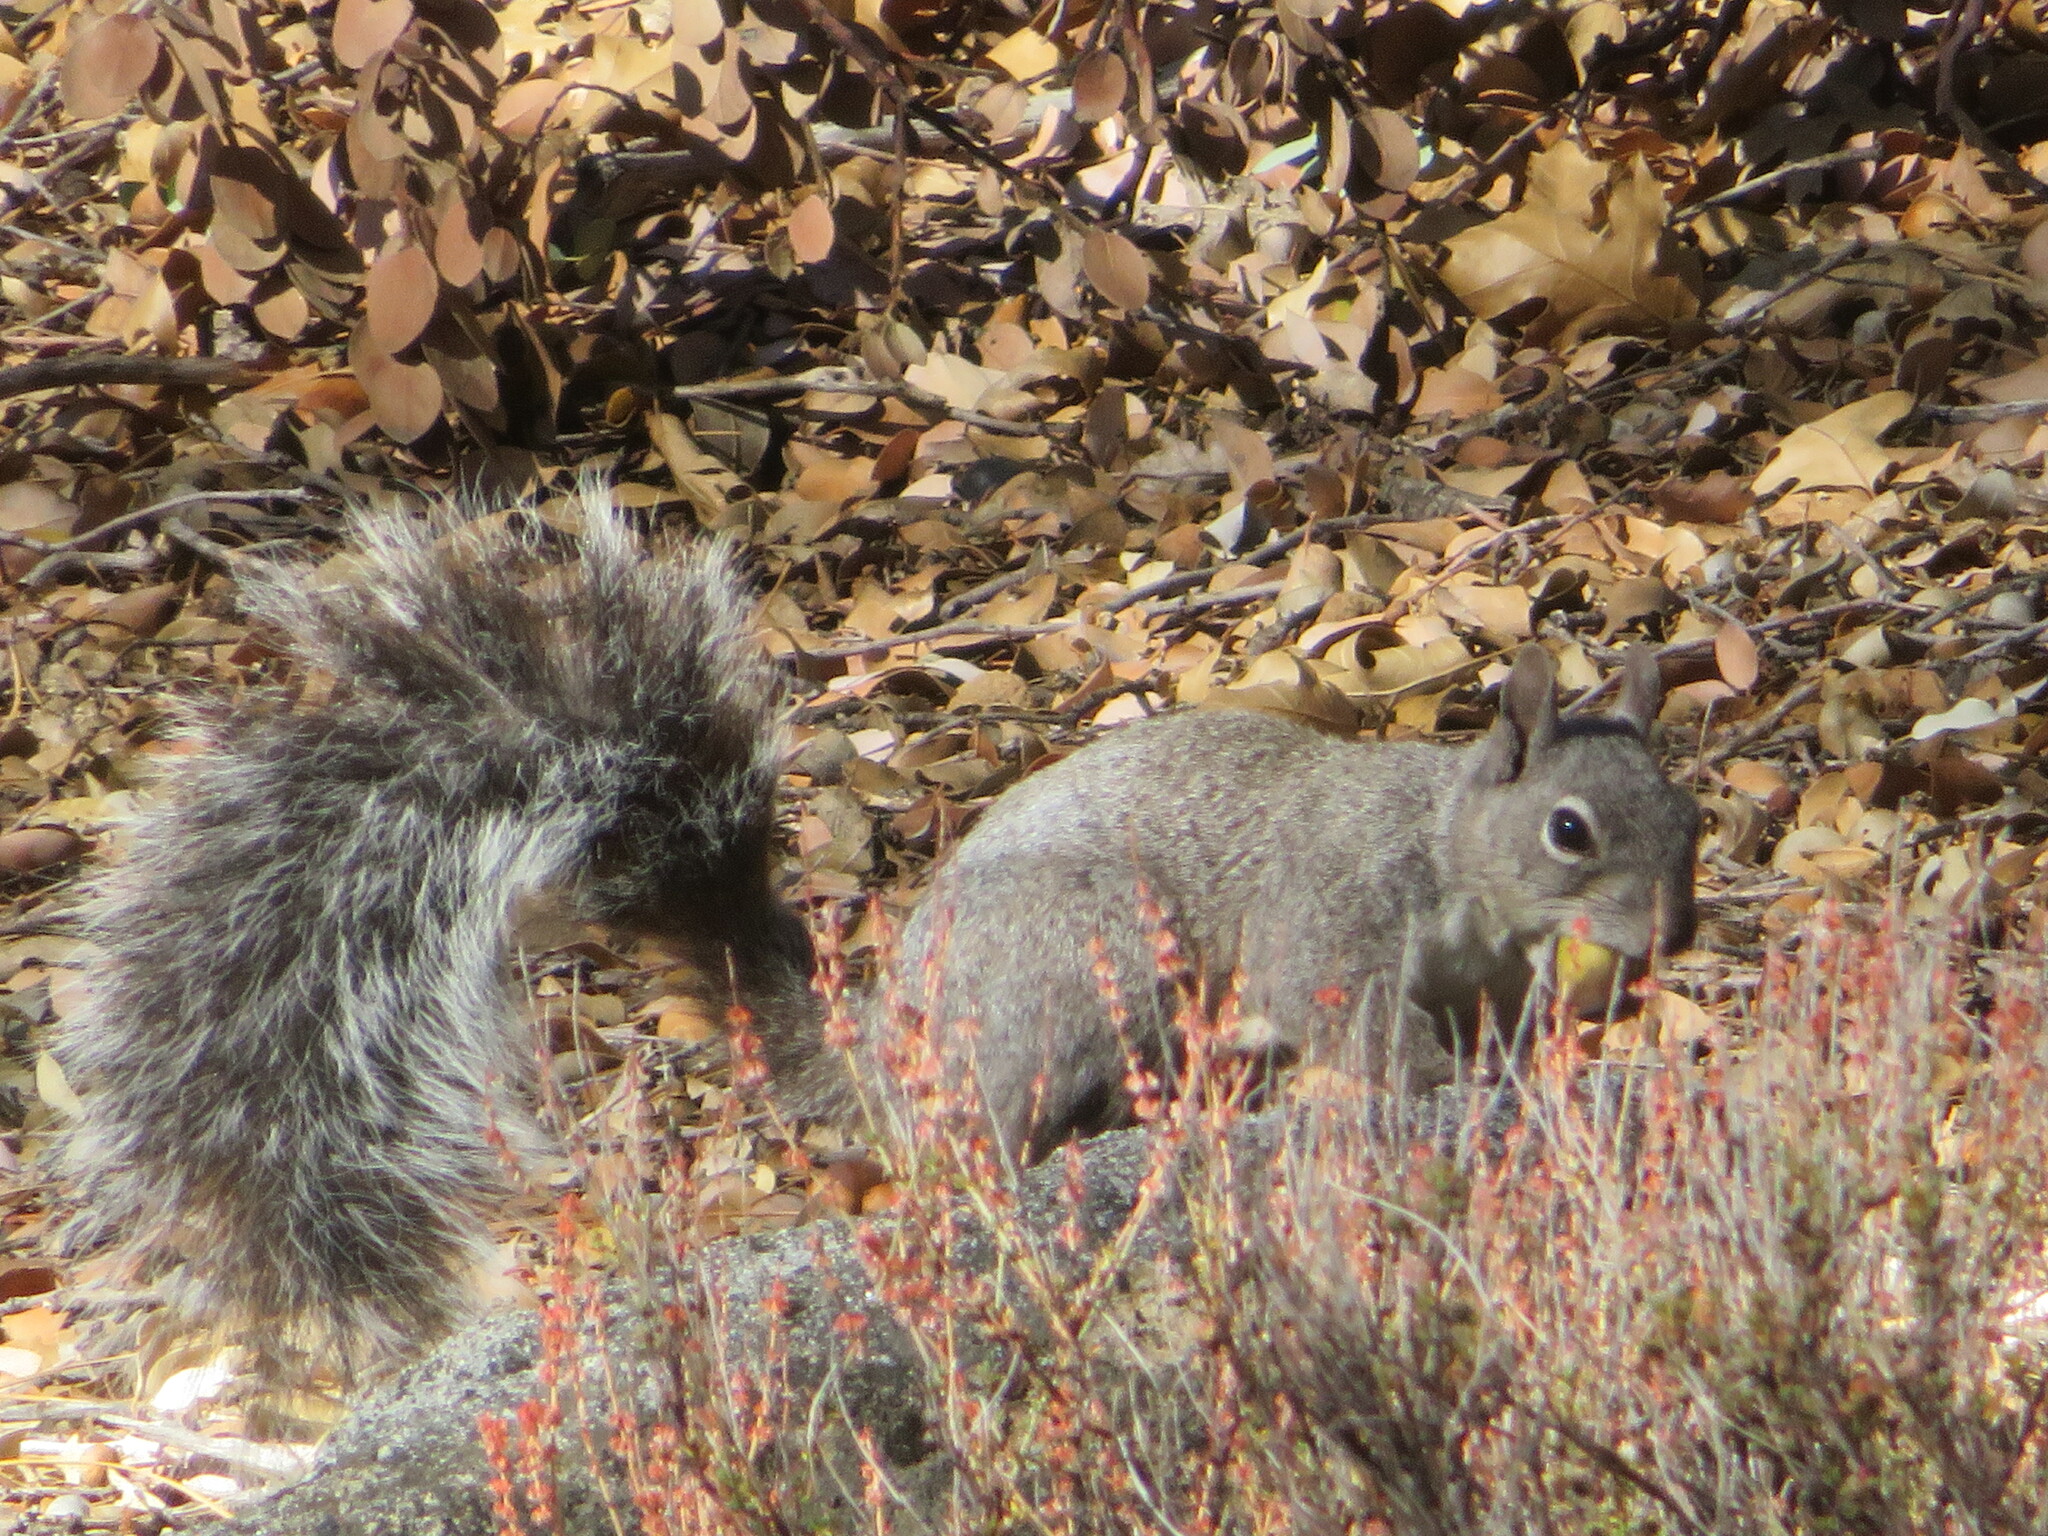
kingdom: Animalia
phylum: Chordata
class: Mammalia
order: Rodentia
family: Sciuridae
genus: Sciurus
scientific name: Sciurus griseus
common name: Western gray squirrel
